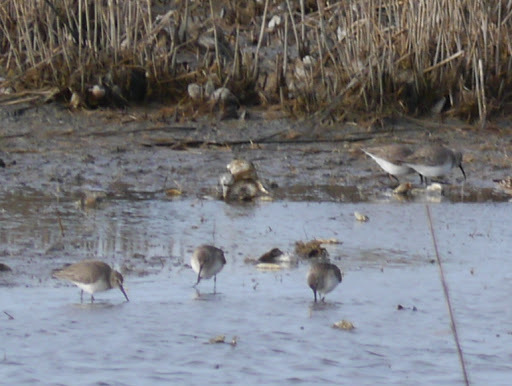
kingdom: Animalia
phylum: Chordata
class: Aves
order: Charadriiformes
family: Scolopacidae
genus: Calidris
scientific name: Calidris alpina
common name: Dunlin
